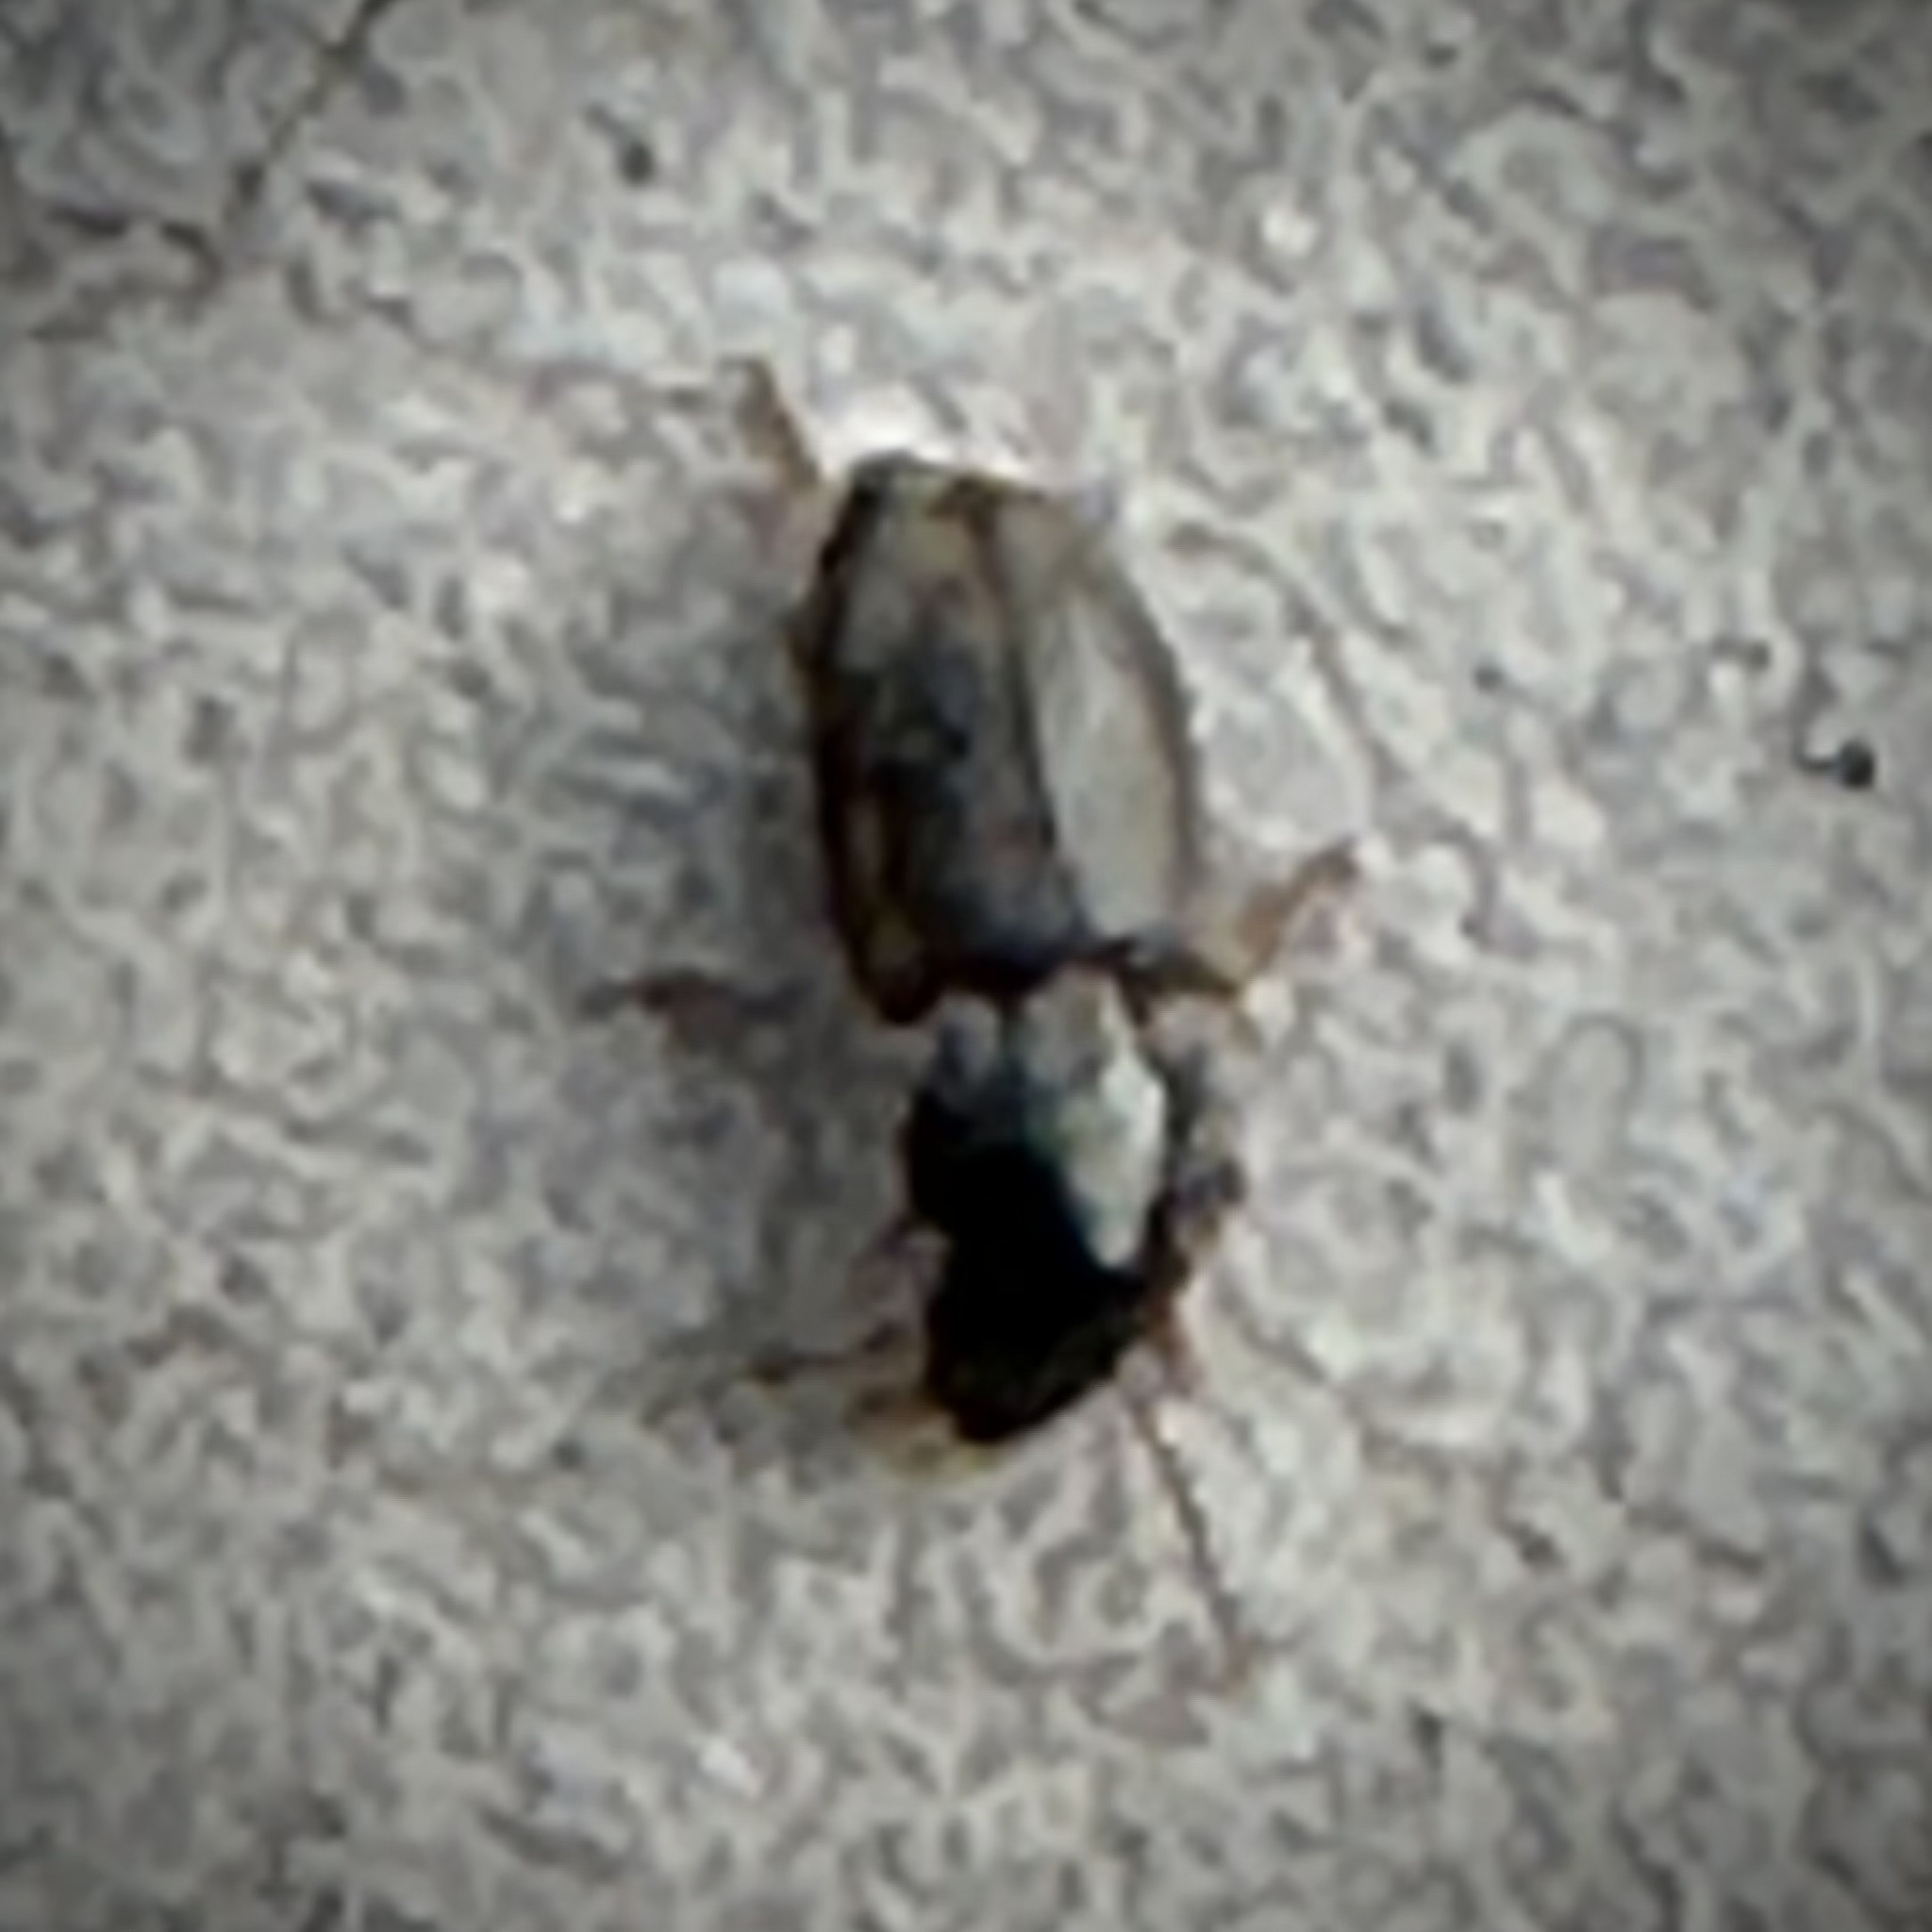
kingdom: Animalia
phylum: Arthropoda
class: Insecta
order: Coleoptera
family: Carabidae
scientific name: Carabidae
